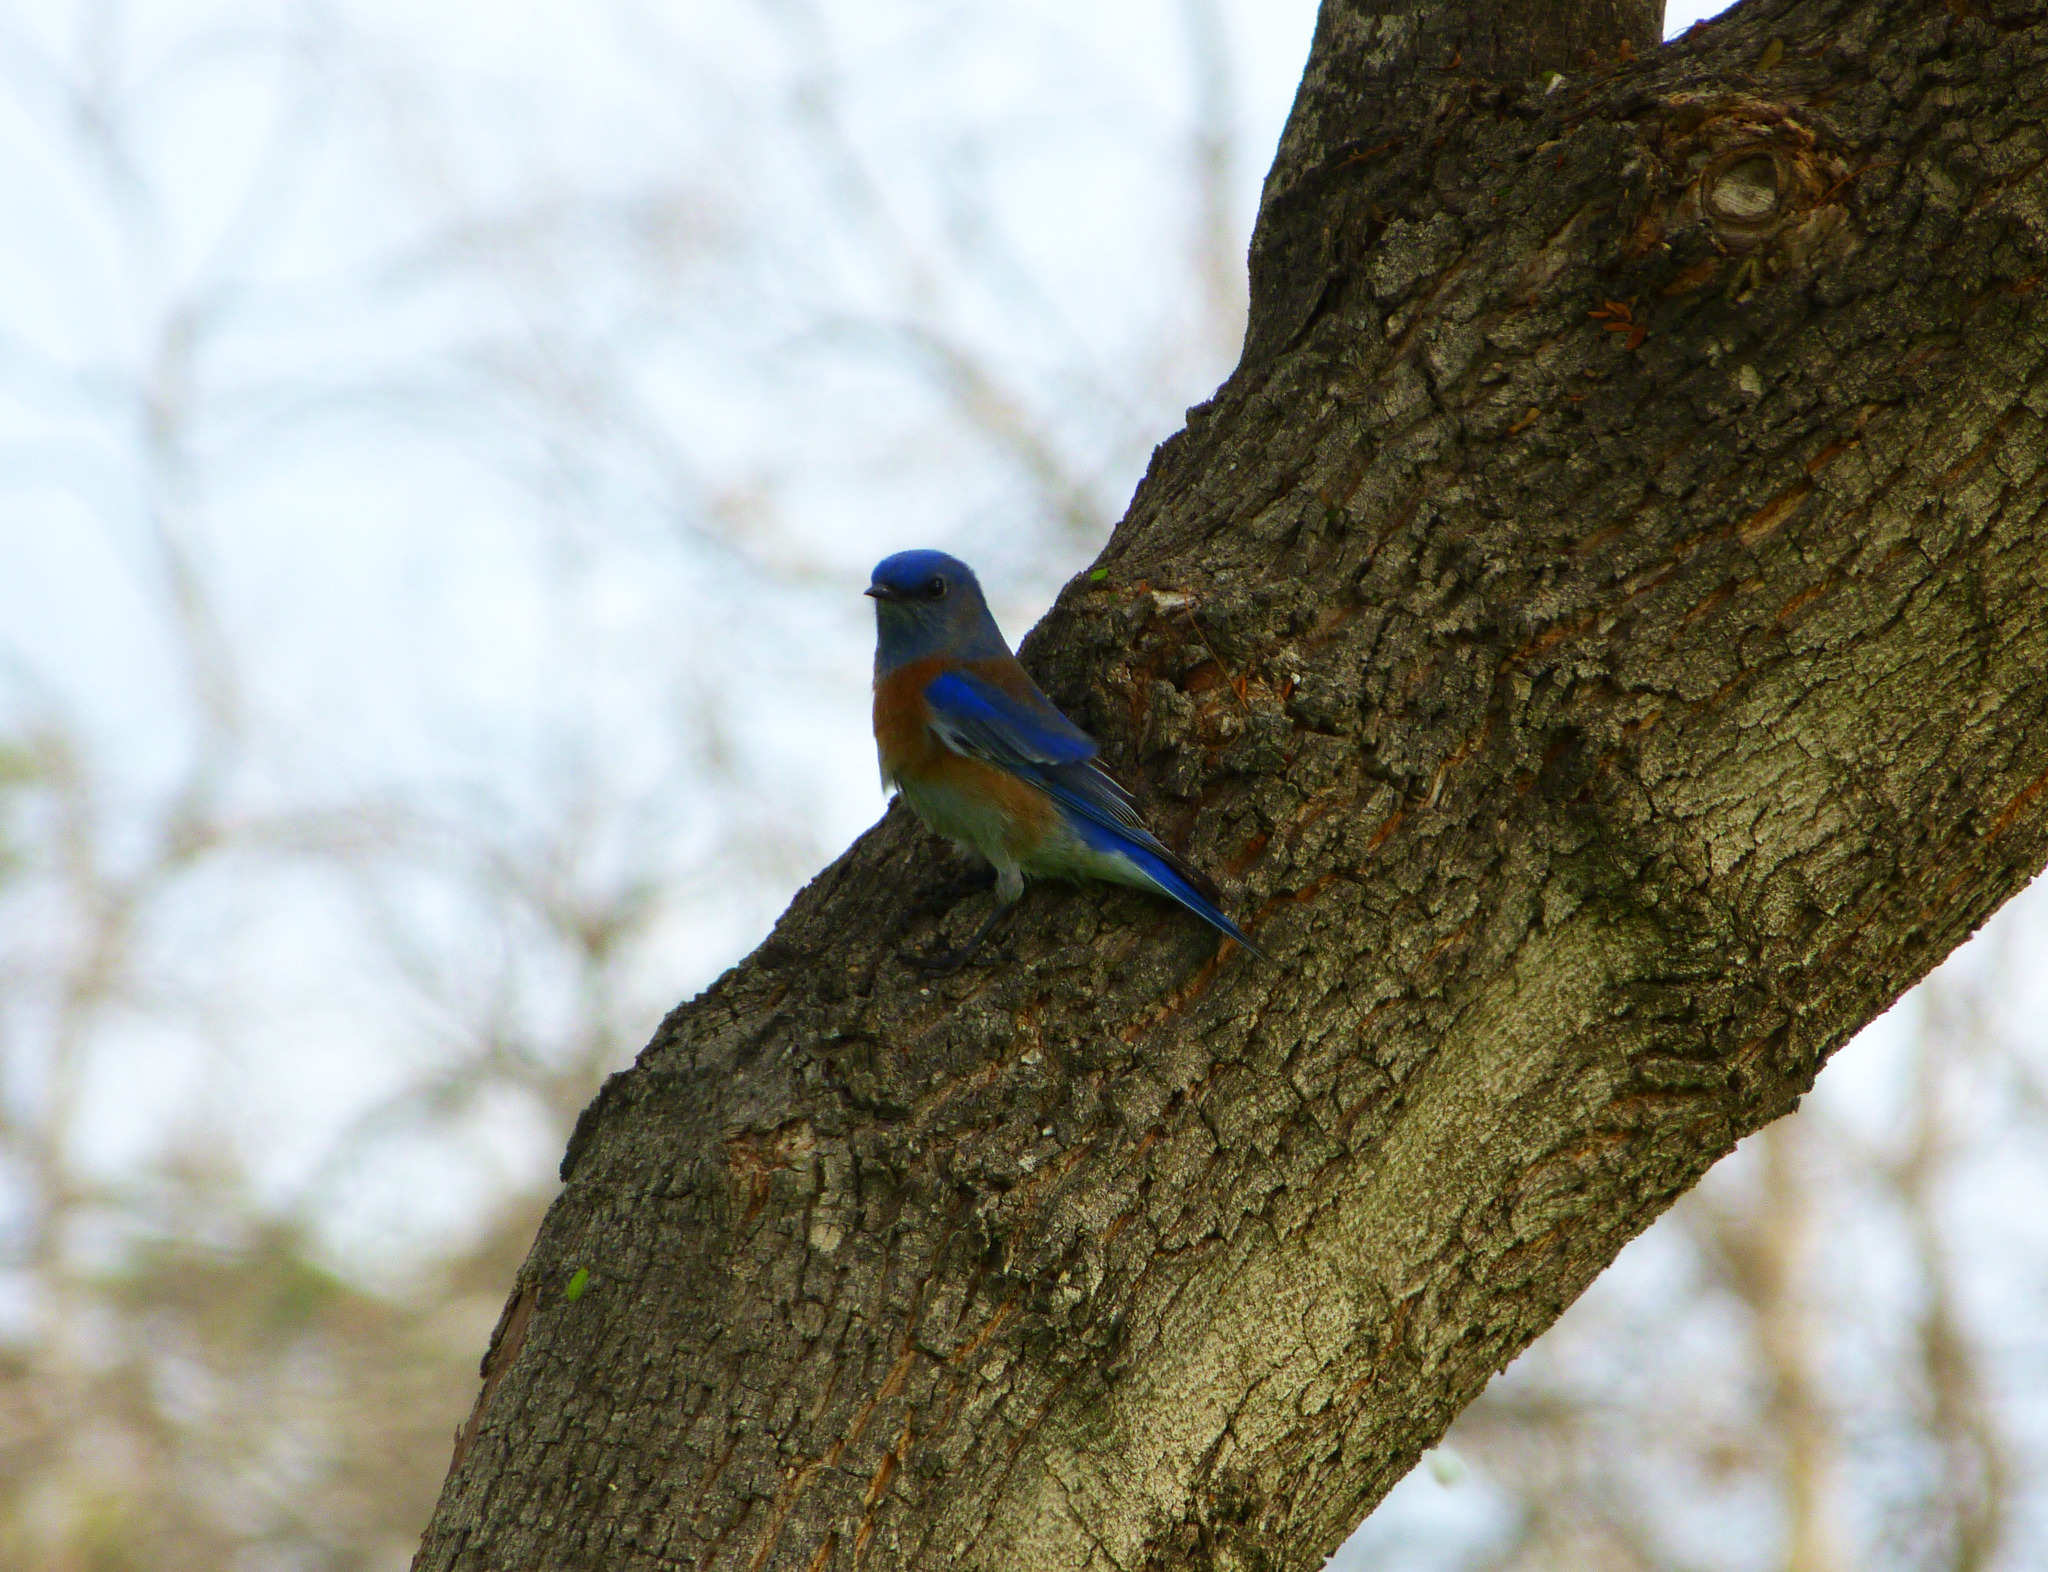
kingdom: Animalia
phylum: Chordata
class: Aves
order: Passeriformes
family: Turdidae
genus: Sialia
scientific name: Sialia mexicana
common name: Western bluebird
